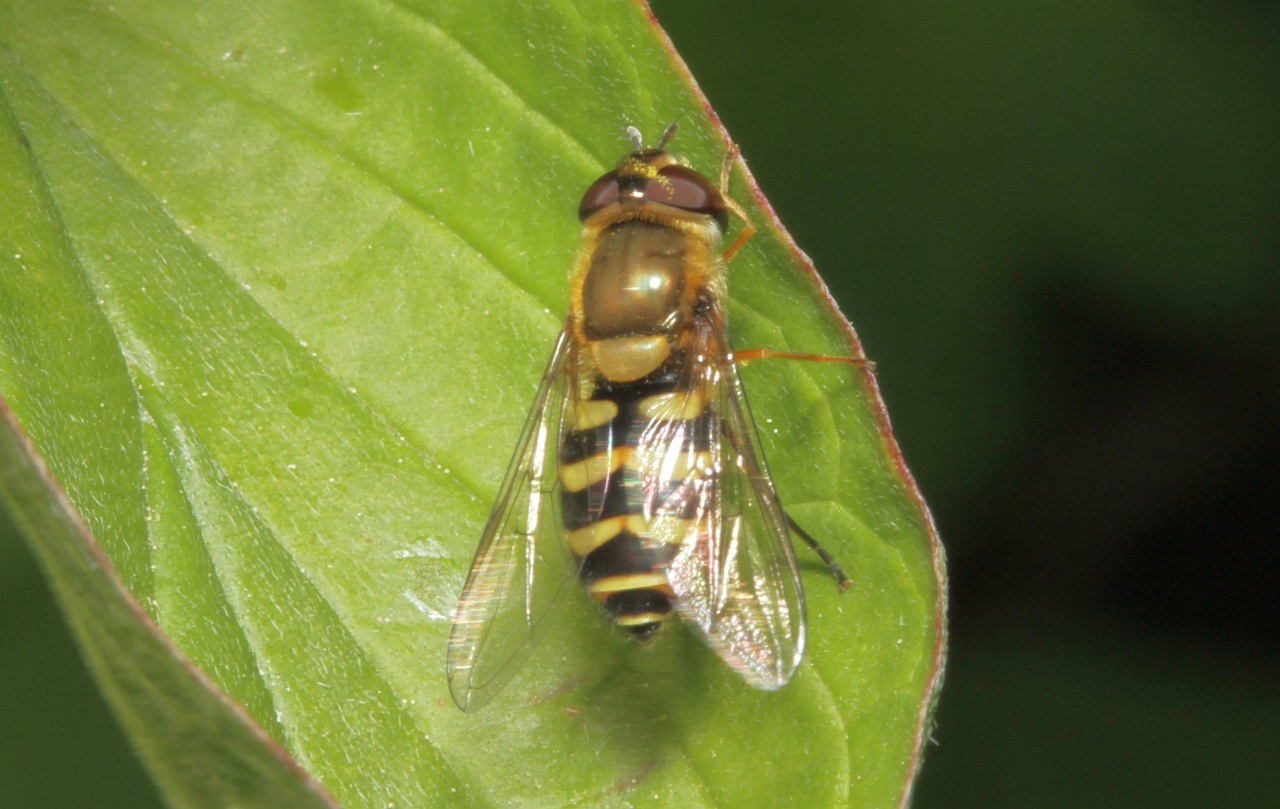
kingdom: Animalia
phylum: Arthropoda
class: Insecta
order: Diptera
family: Syrphidae
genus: Syrphus
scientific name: Syrphus
